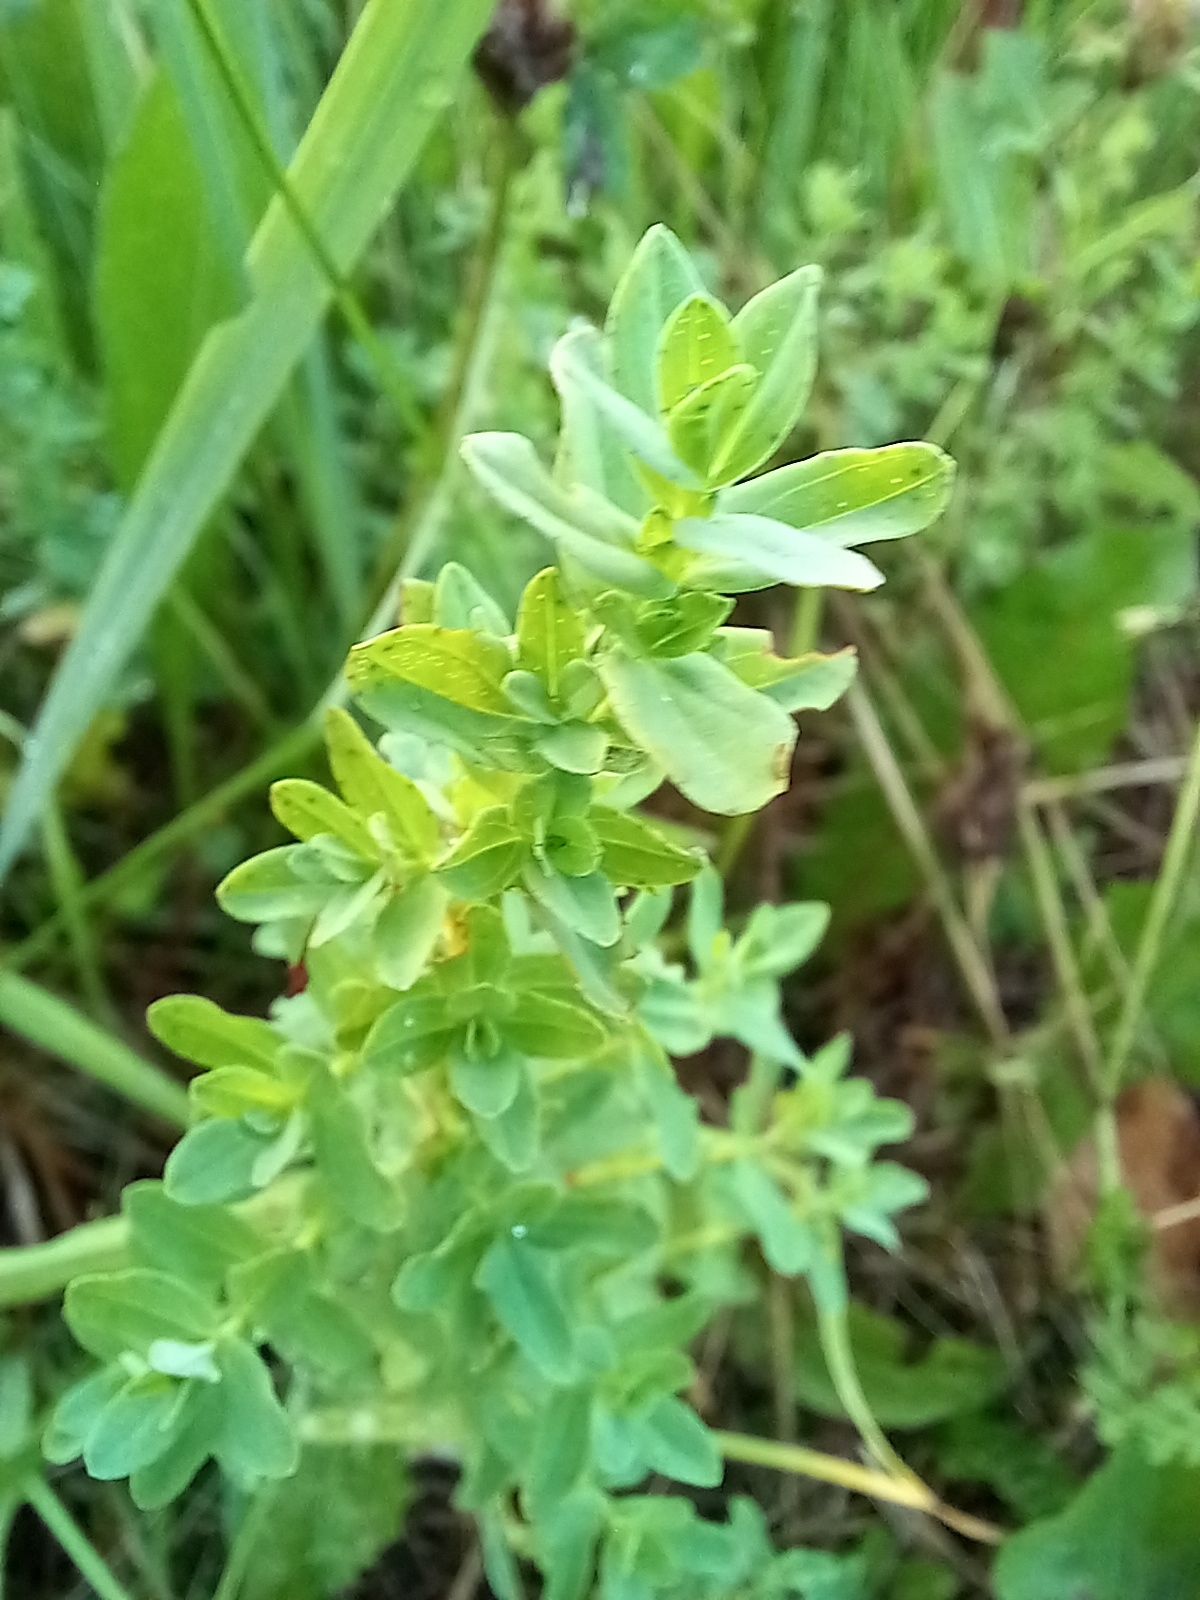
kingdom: Plantae
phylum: Tracheophyta
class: Magnoliopsida
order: Malpighiales
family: Hypericaceae
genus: Hypericum
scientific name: Hypericum perforatum
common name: Common st. johnswort
